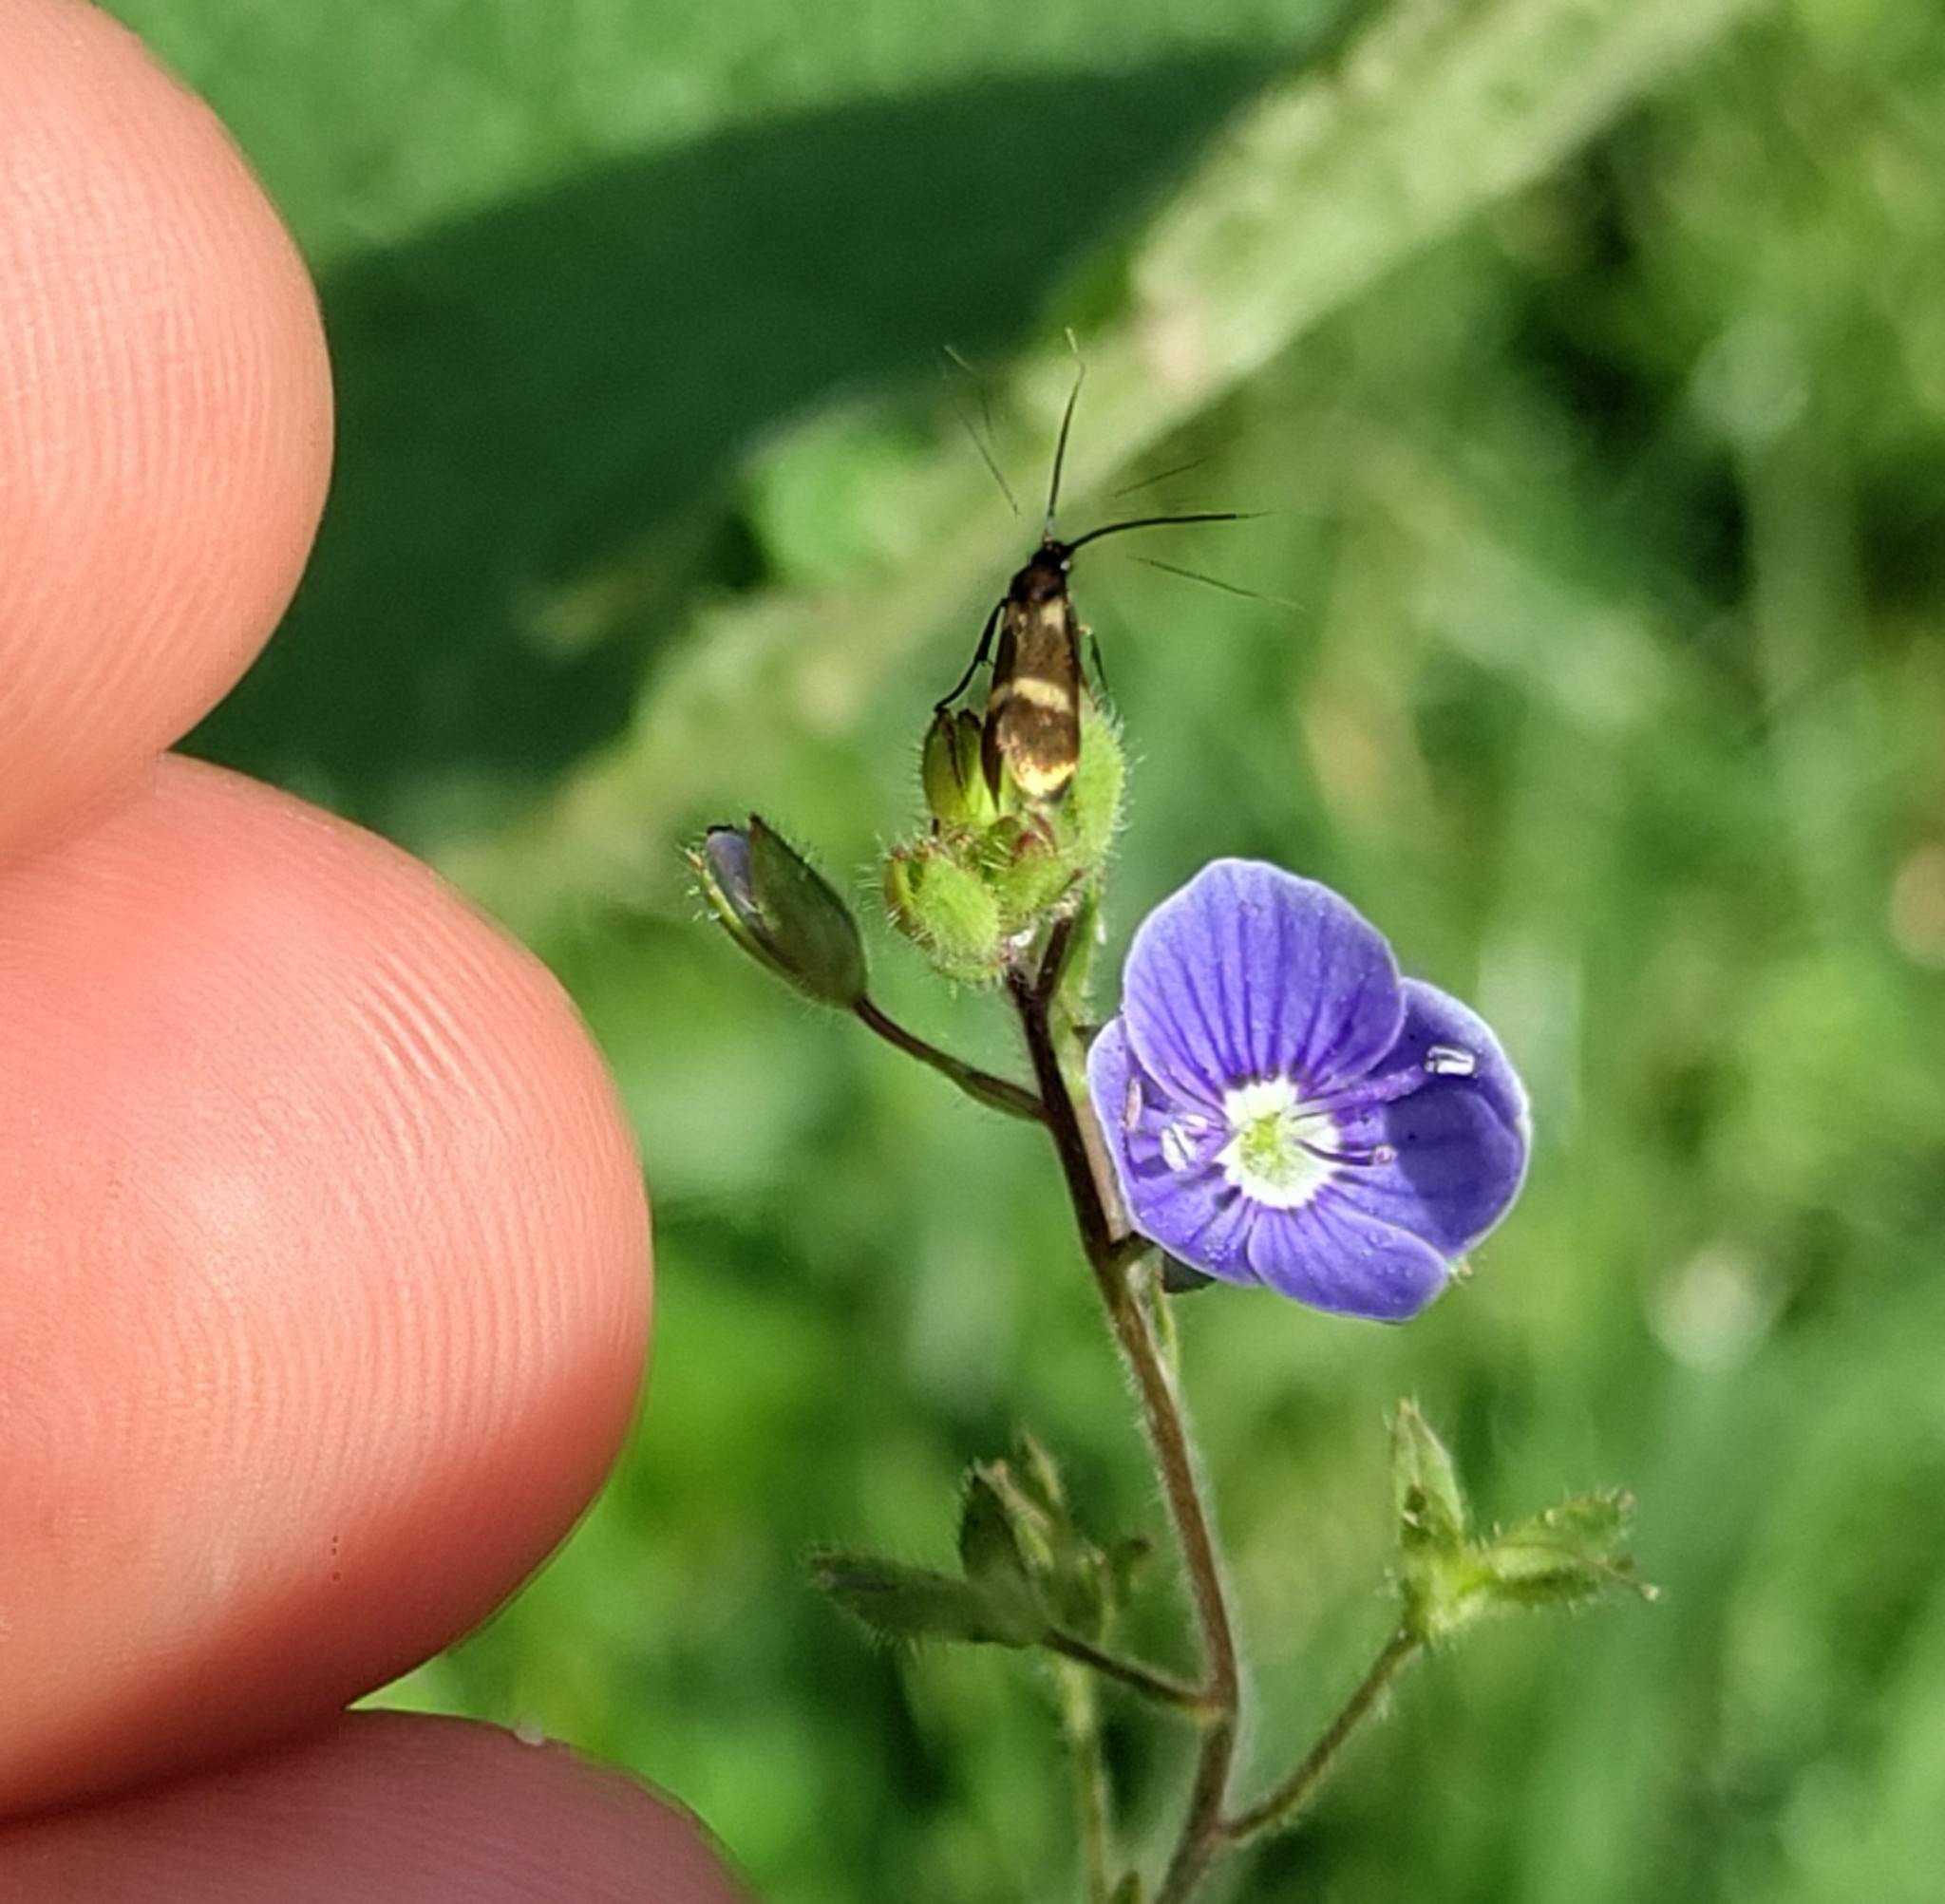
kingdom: Animalia
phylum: Arthropoda
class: Insecta
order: Lepidoptera
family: Adelidae
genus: Cauchas
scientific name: Cauchas fibulella
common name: Little long-horn
